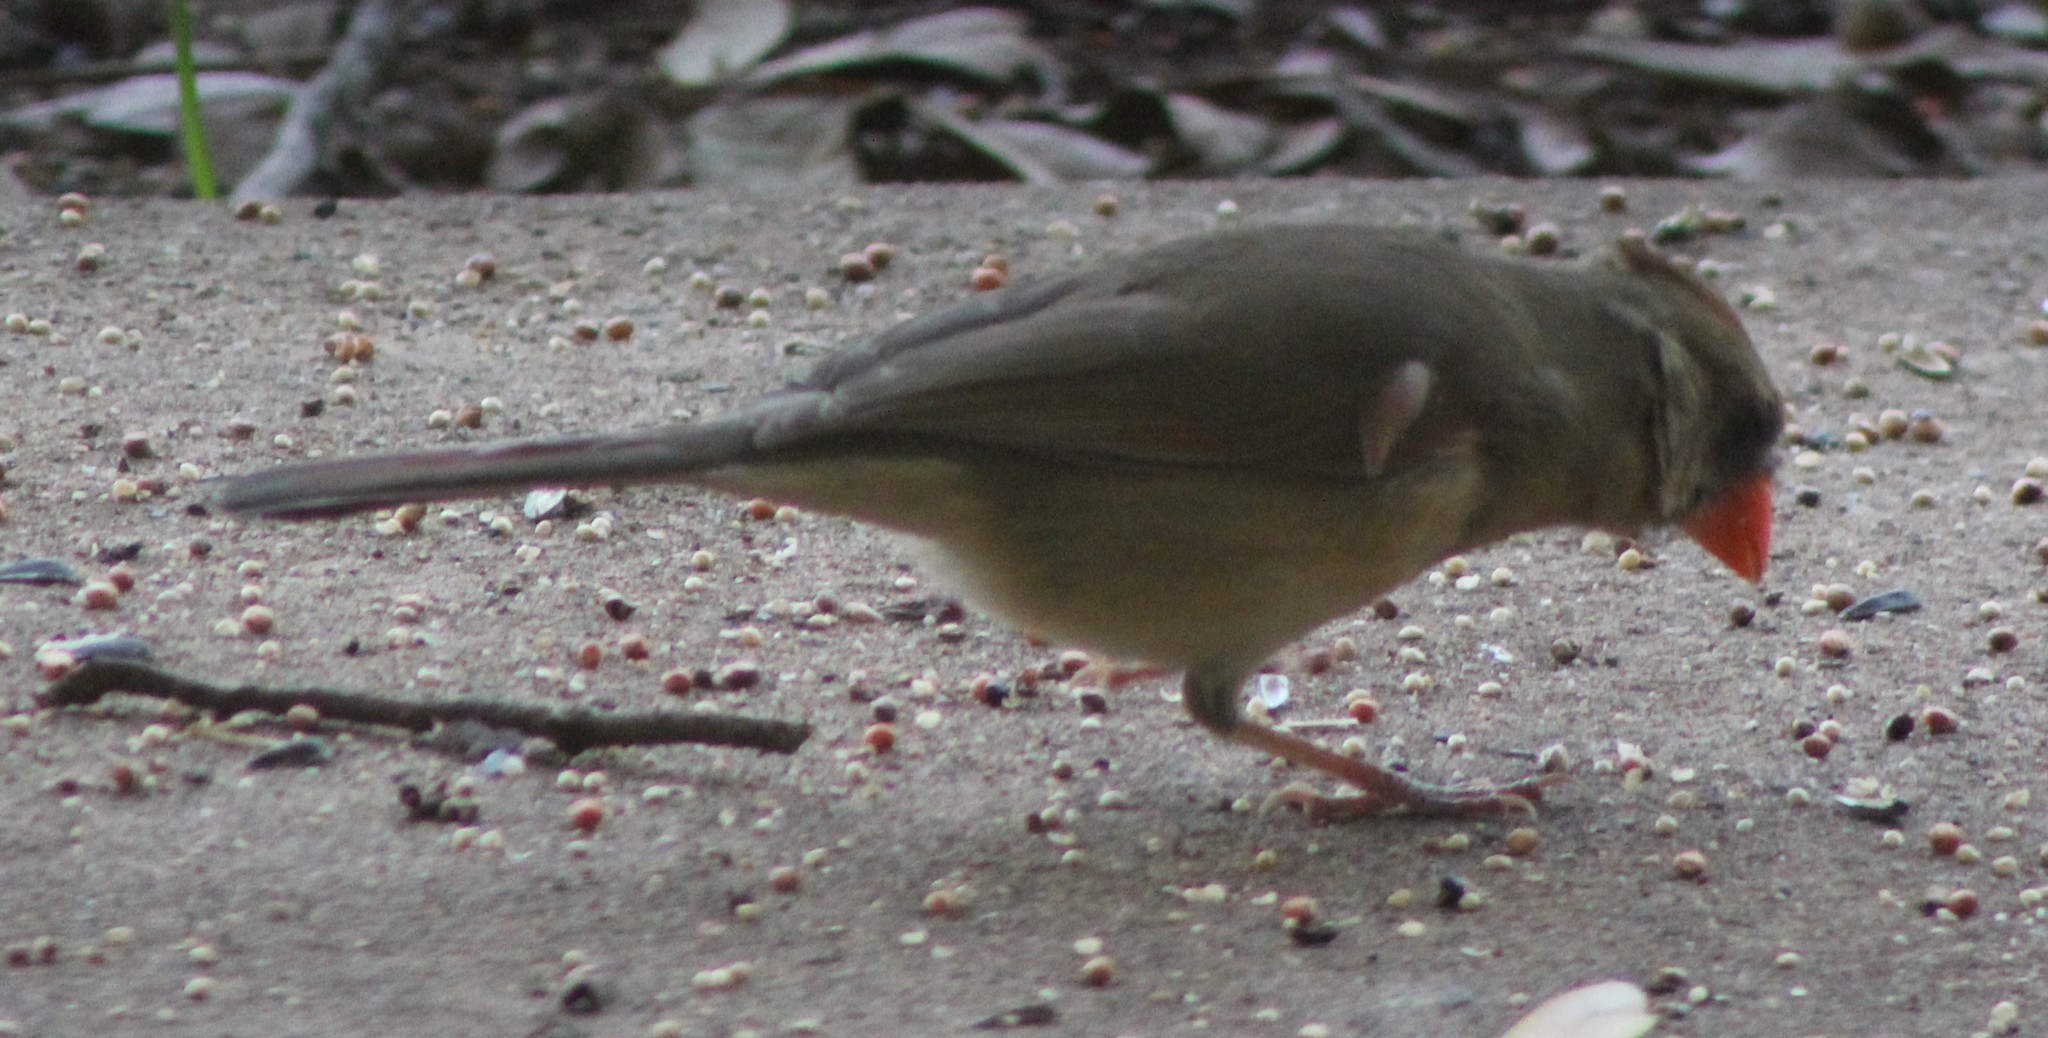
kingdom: Animalia
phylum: Chordata
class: Aves
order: Passeriformes
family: Cardinalidae
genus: Cardinalis
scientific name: Cardinalis cardinalis
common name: Northern cardinal
